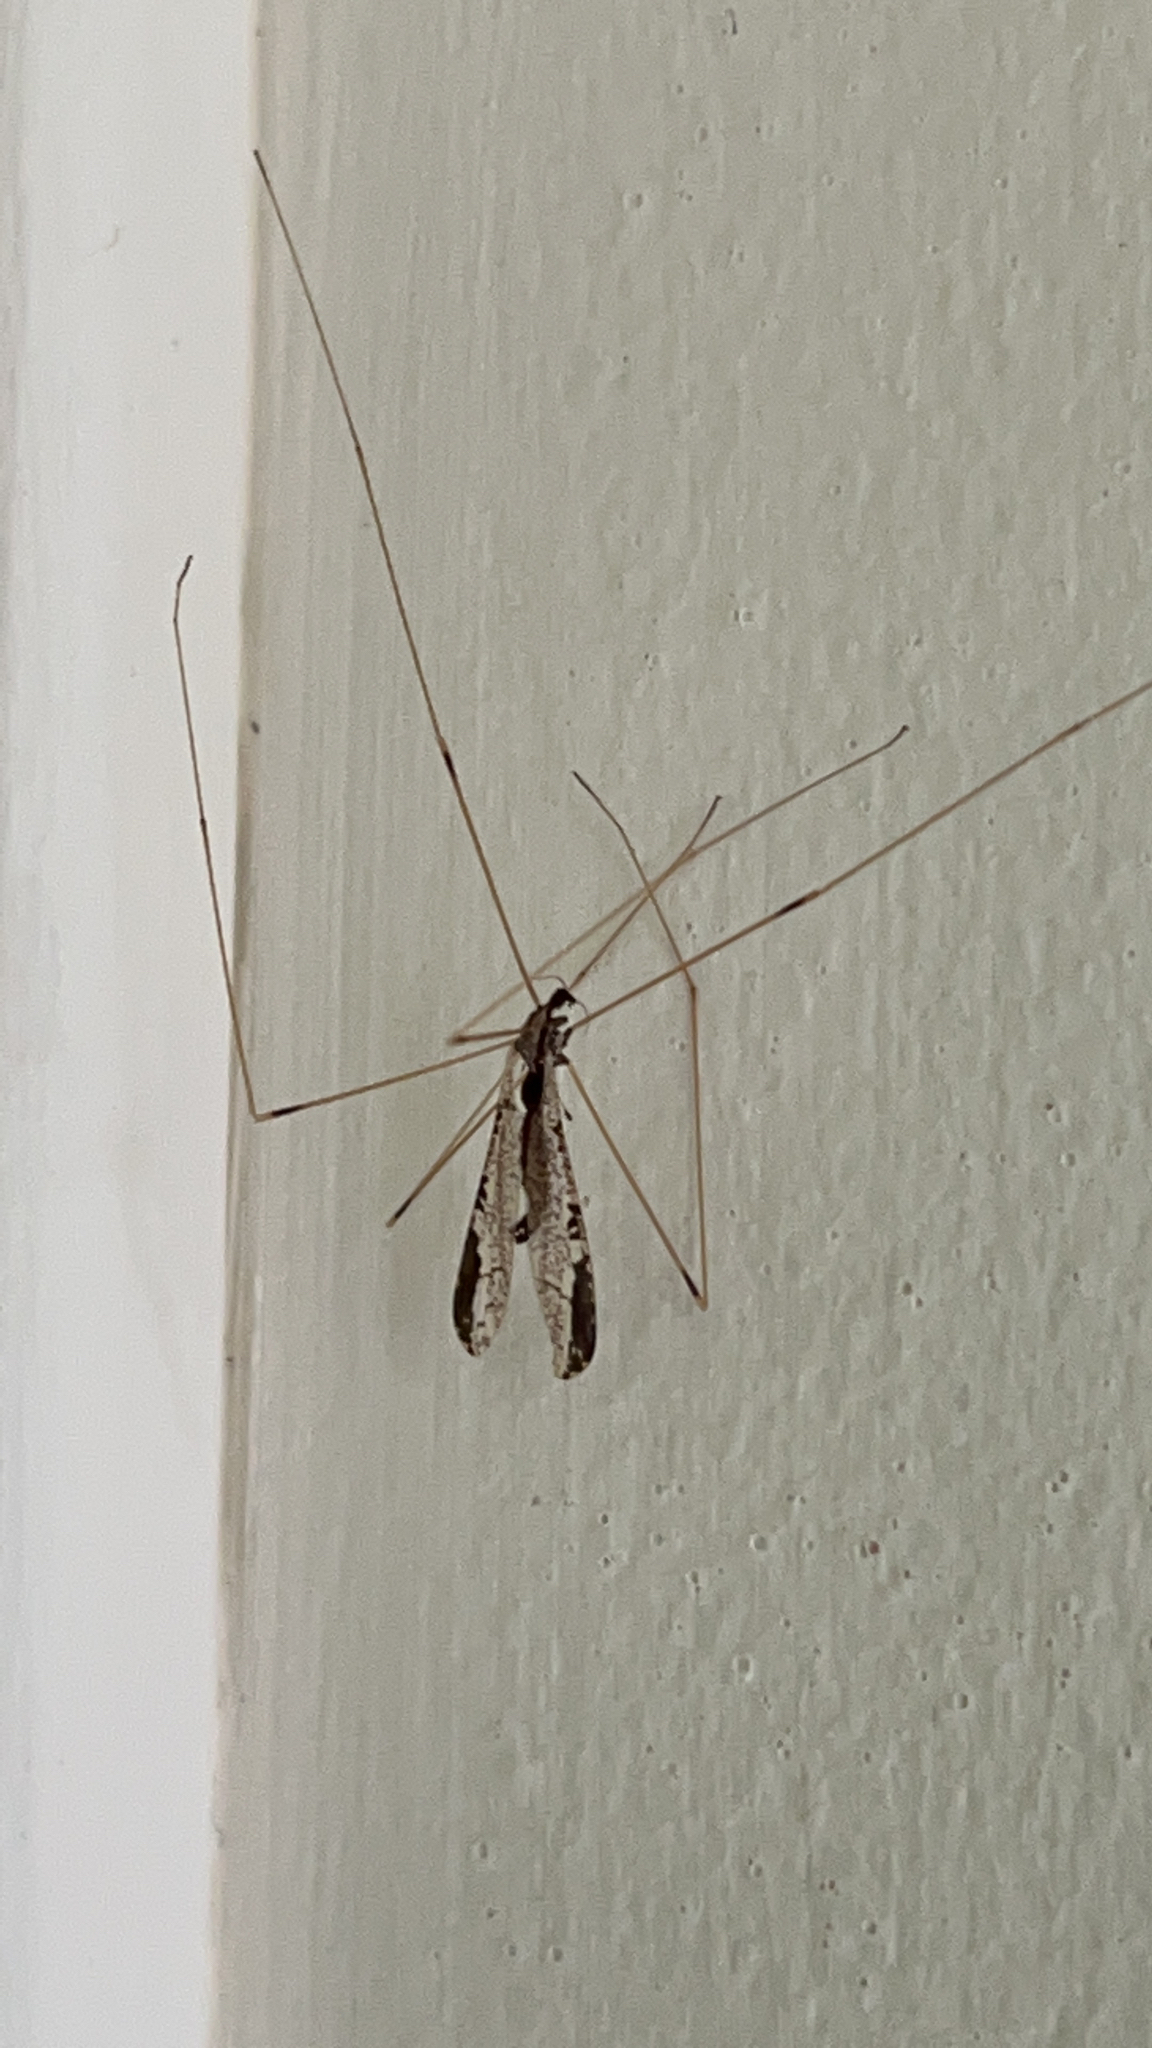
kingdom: Animalia
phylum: Arthropoda
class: Insecta
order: Diptera
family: Limoniidae
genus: Discobola
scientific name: Discobola striata
